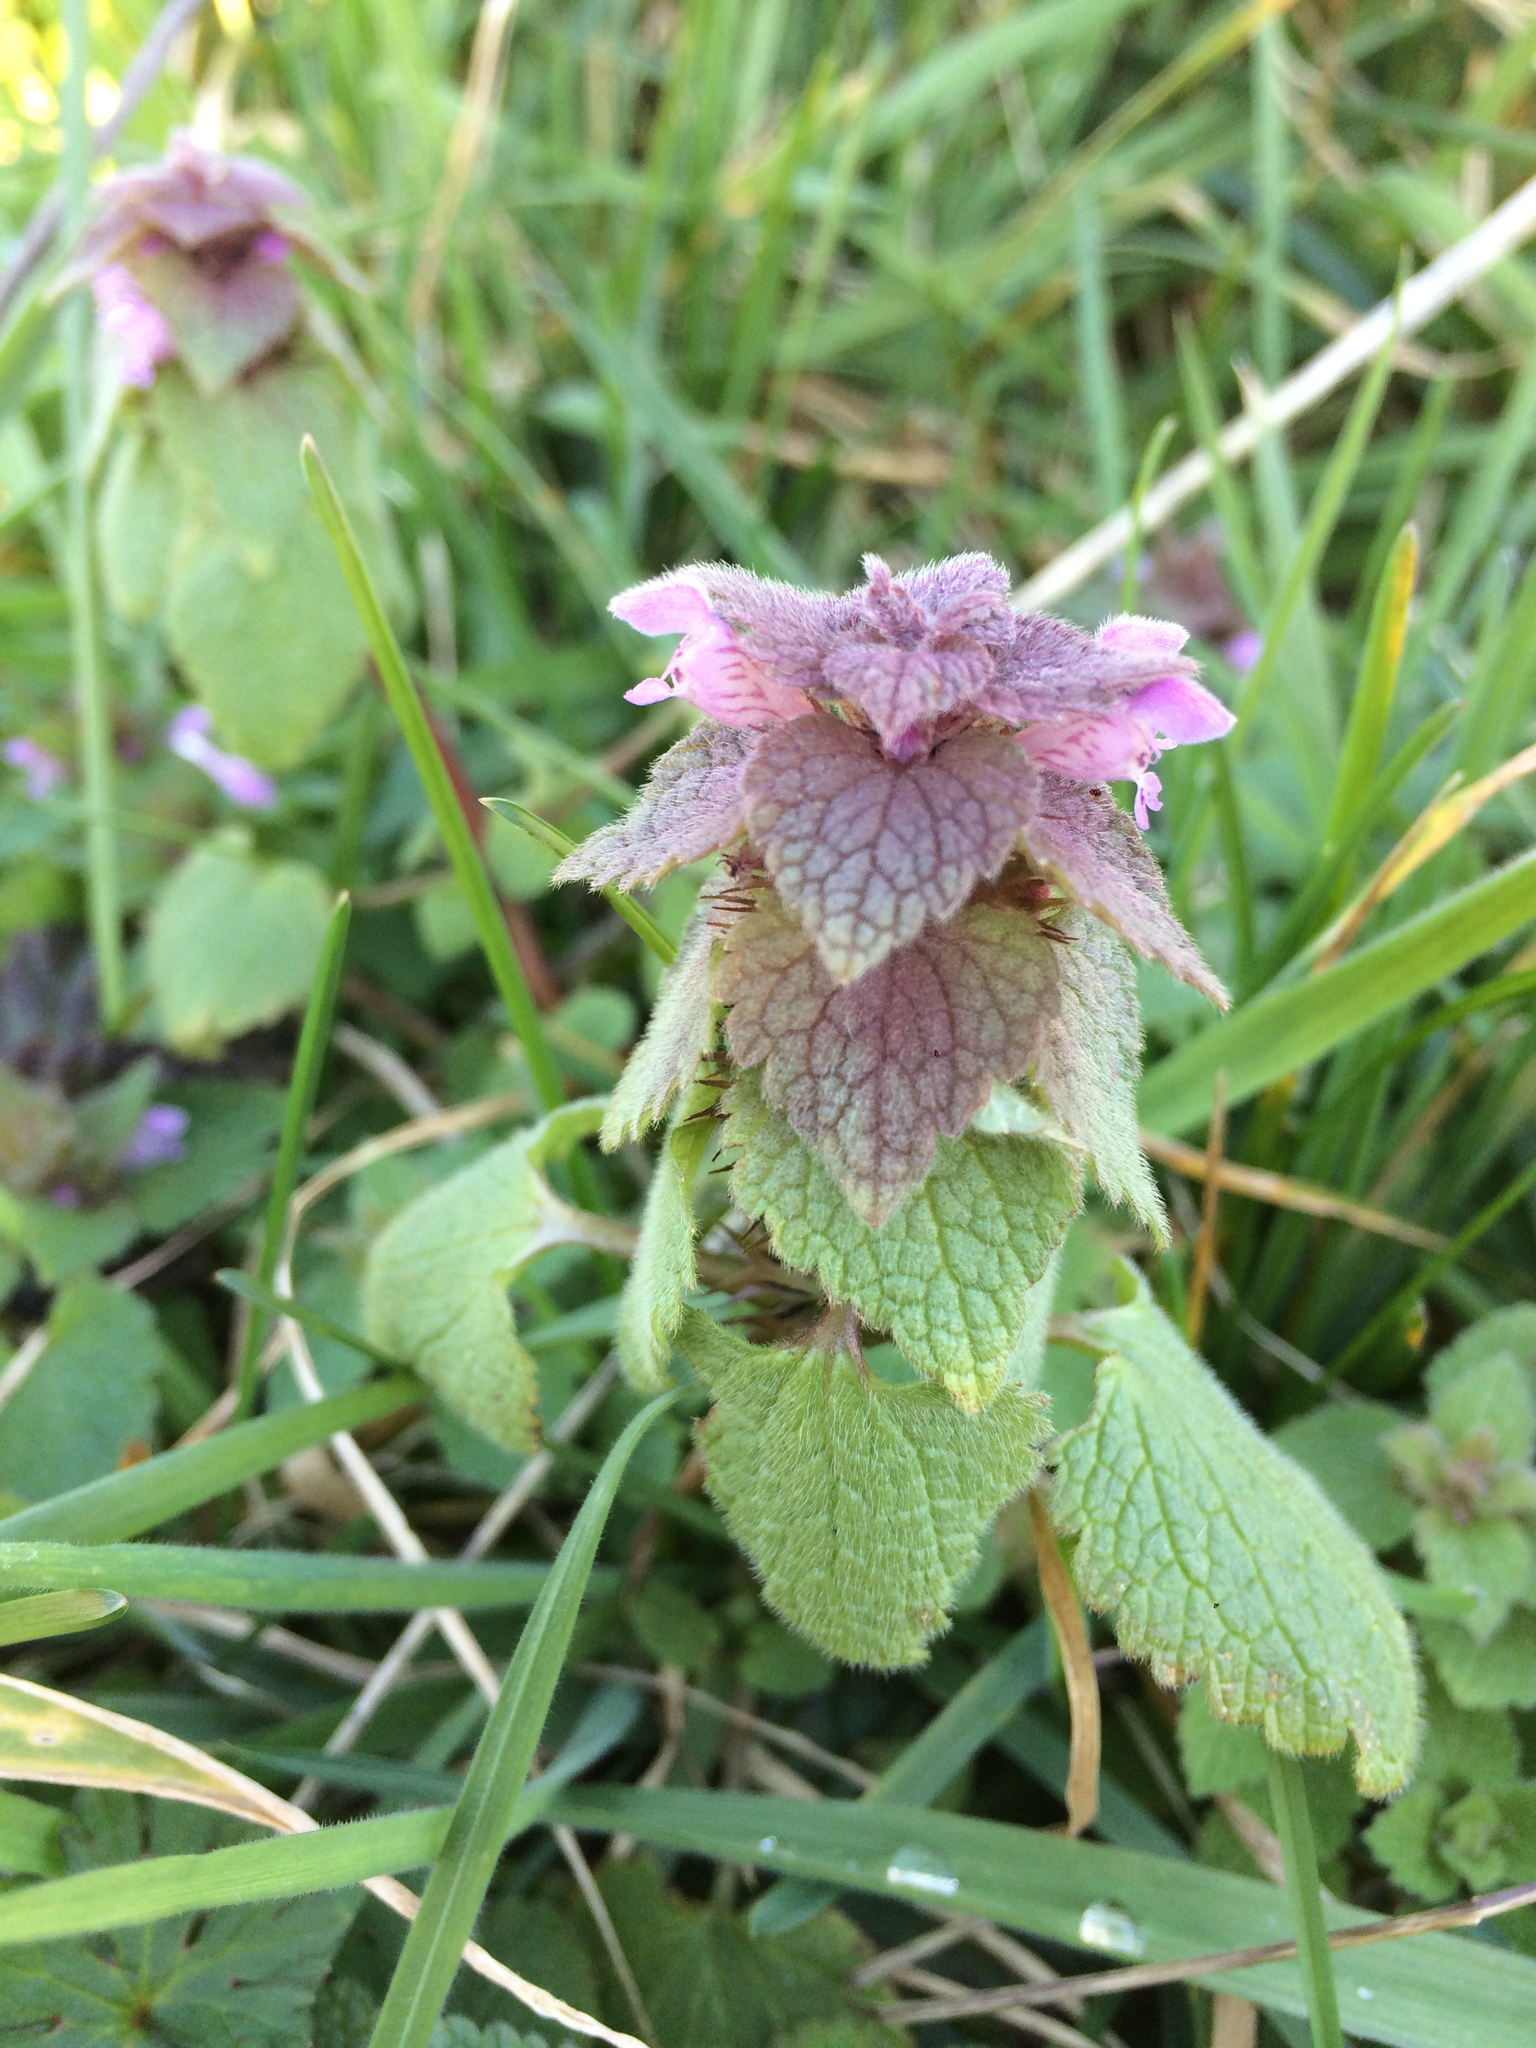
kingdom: Plantae
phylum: Tracheophyta
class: Magnoliopsida
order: Lamiales
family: Lamiaceae
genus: Lamium
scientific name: Lamium purpureum
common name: Red dead-nettle
